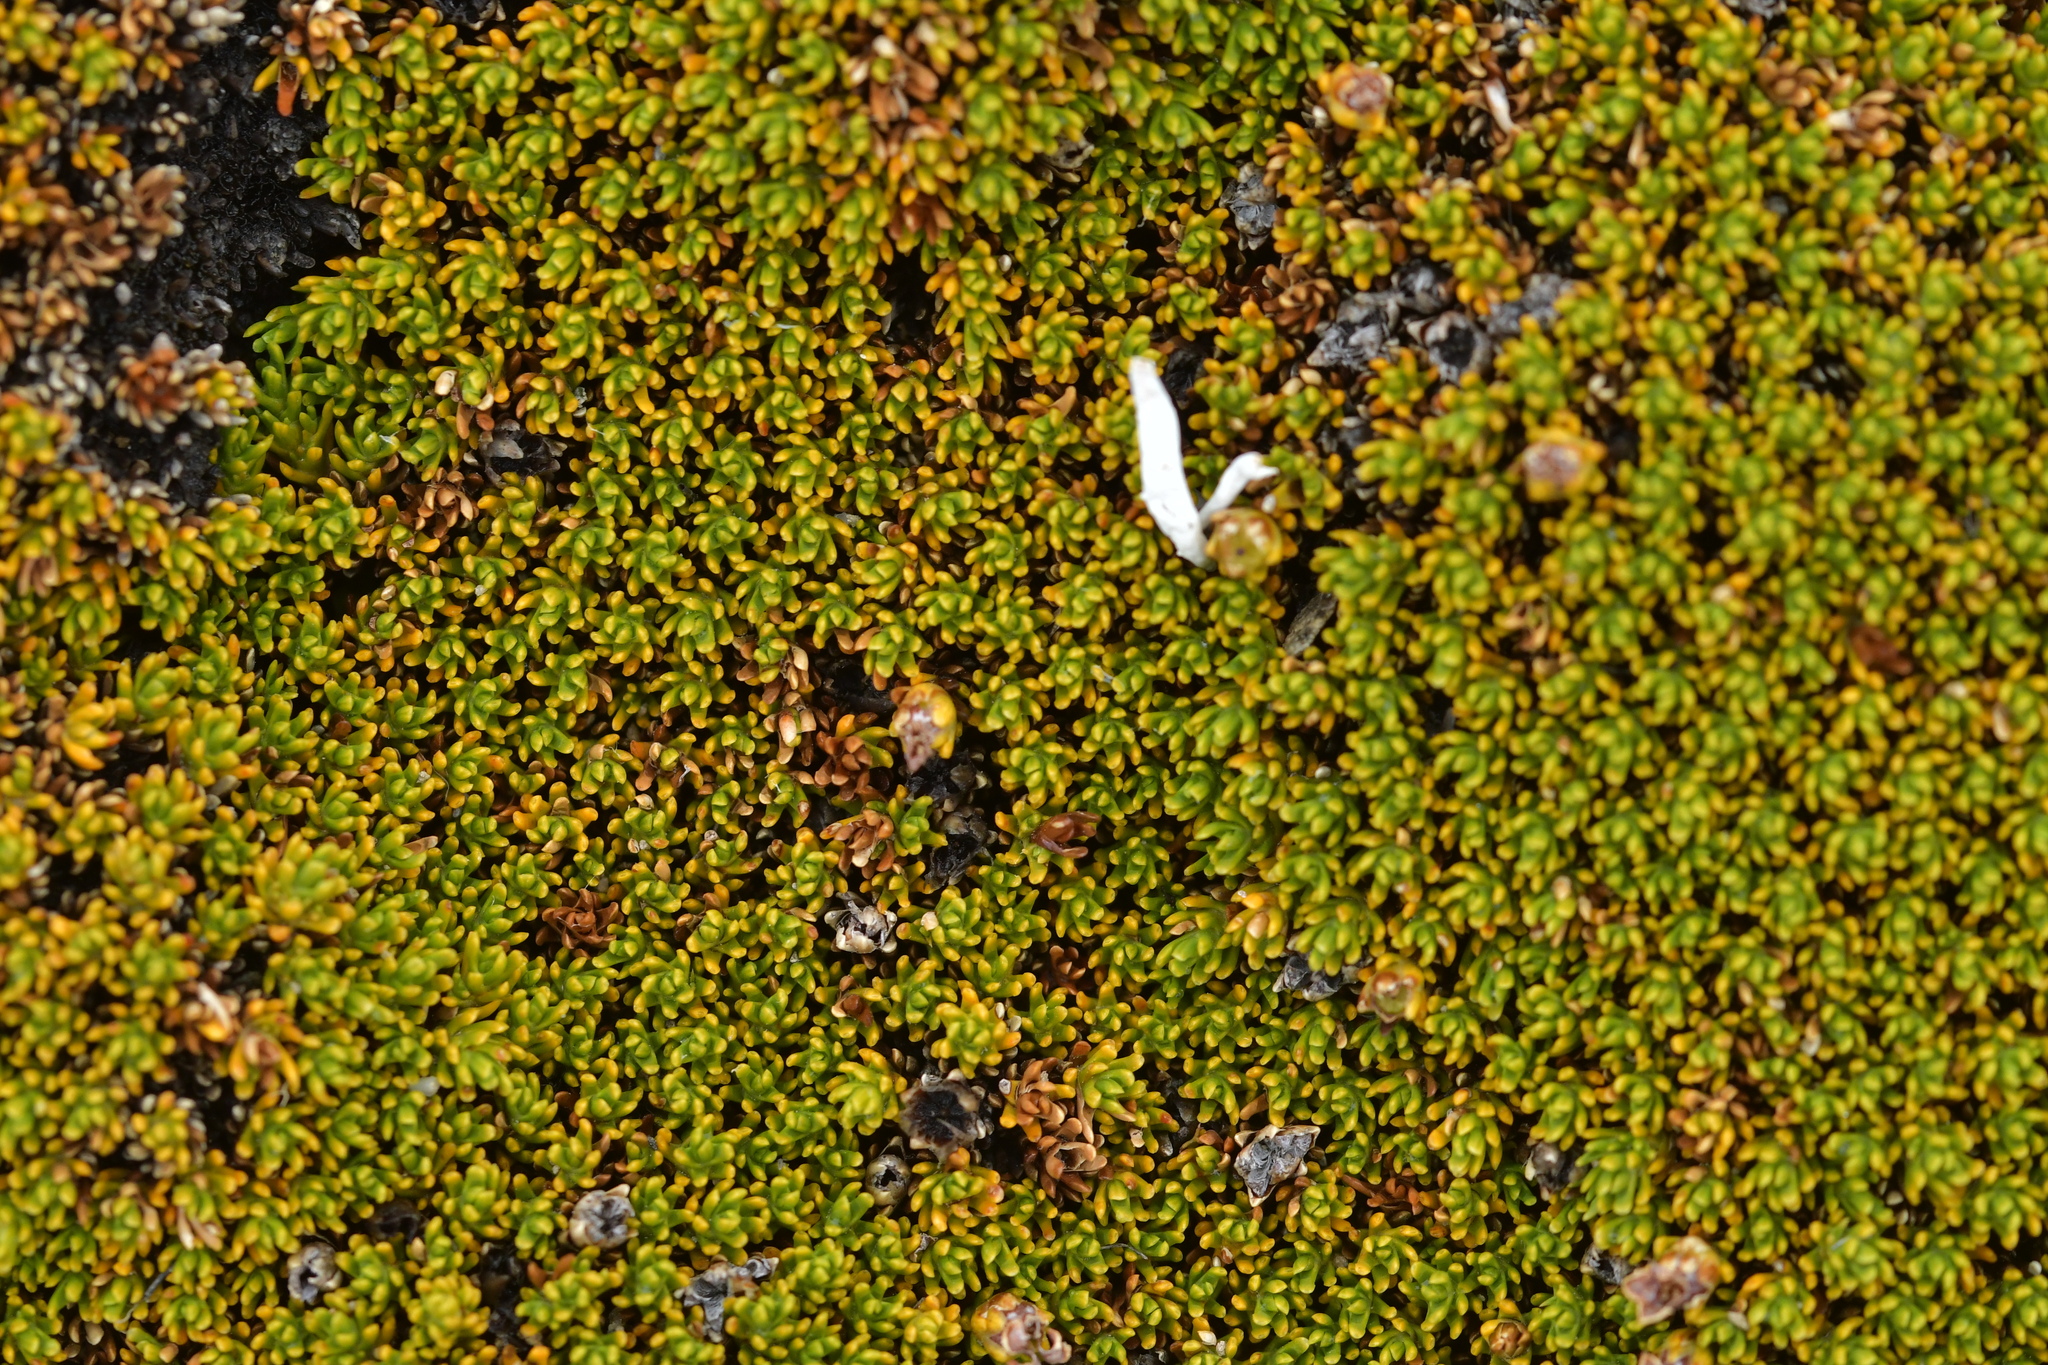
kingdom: Plantae
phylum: Tracheophyta
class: Magnoliopsida
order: Ericales
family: Ericaceae
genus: Dracophyllum
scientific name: Dracophyllum muscoides
